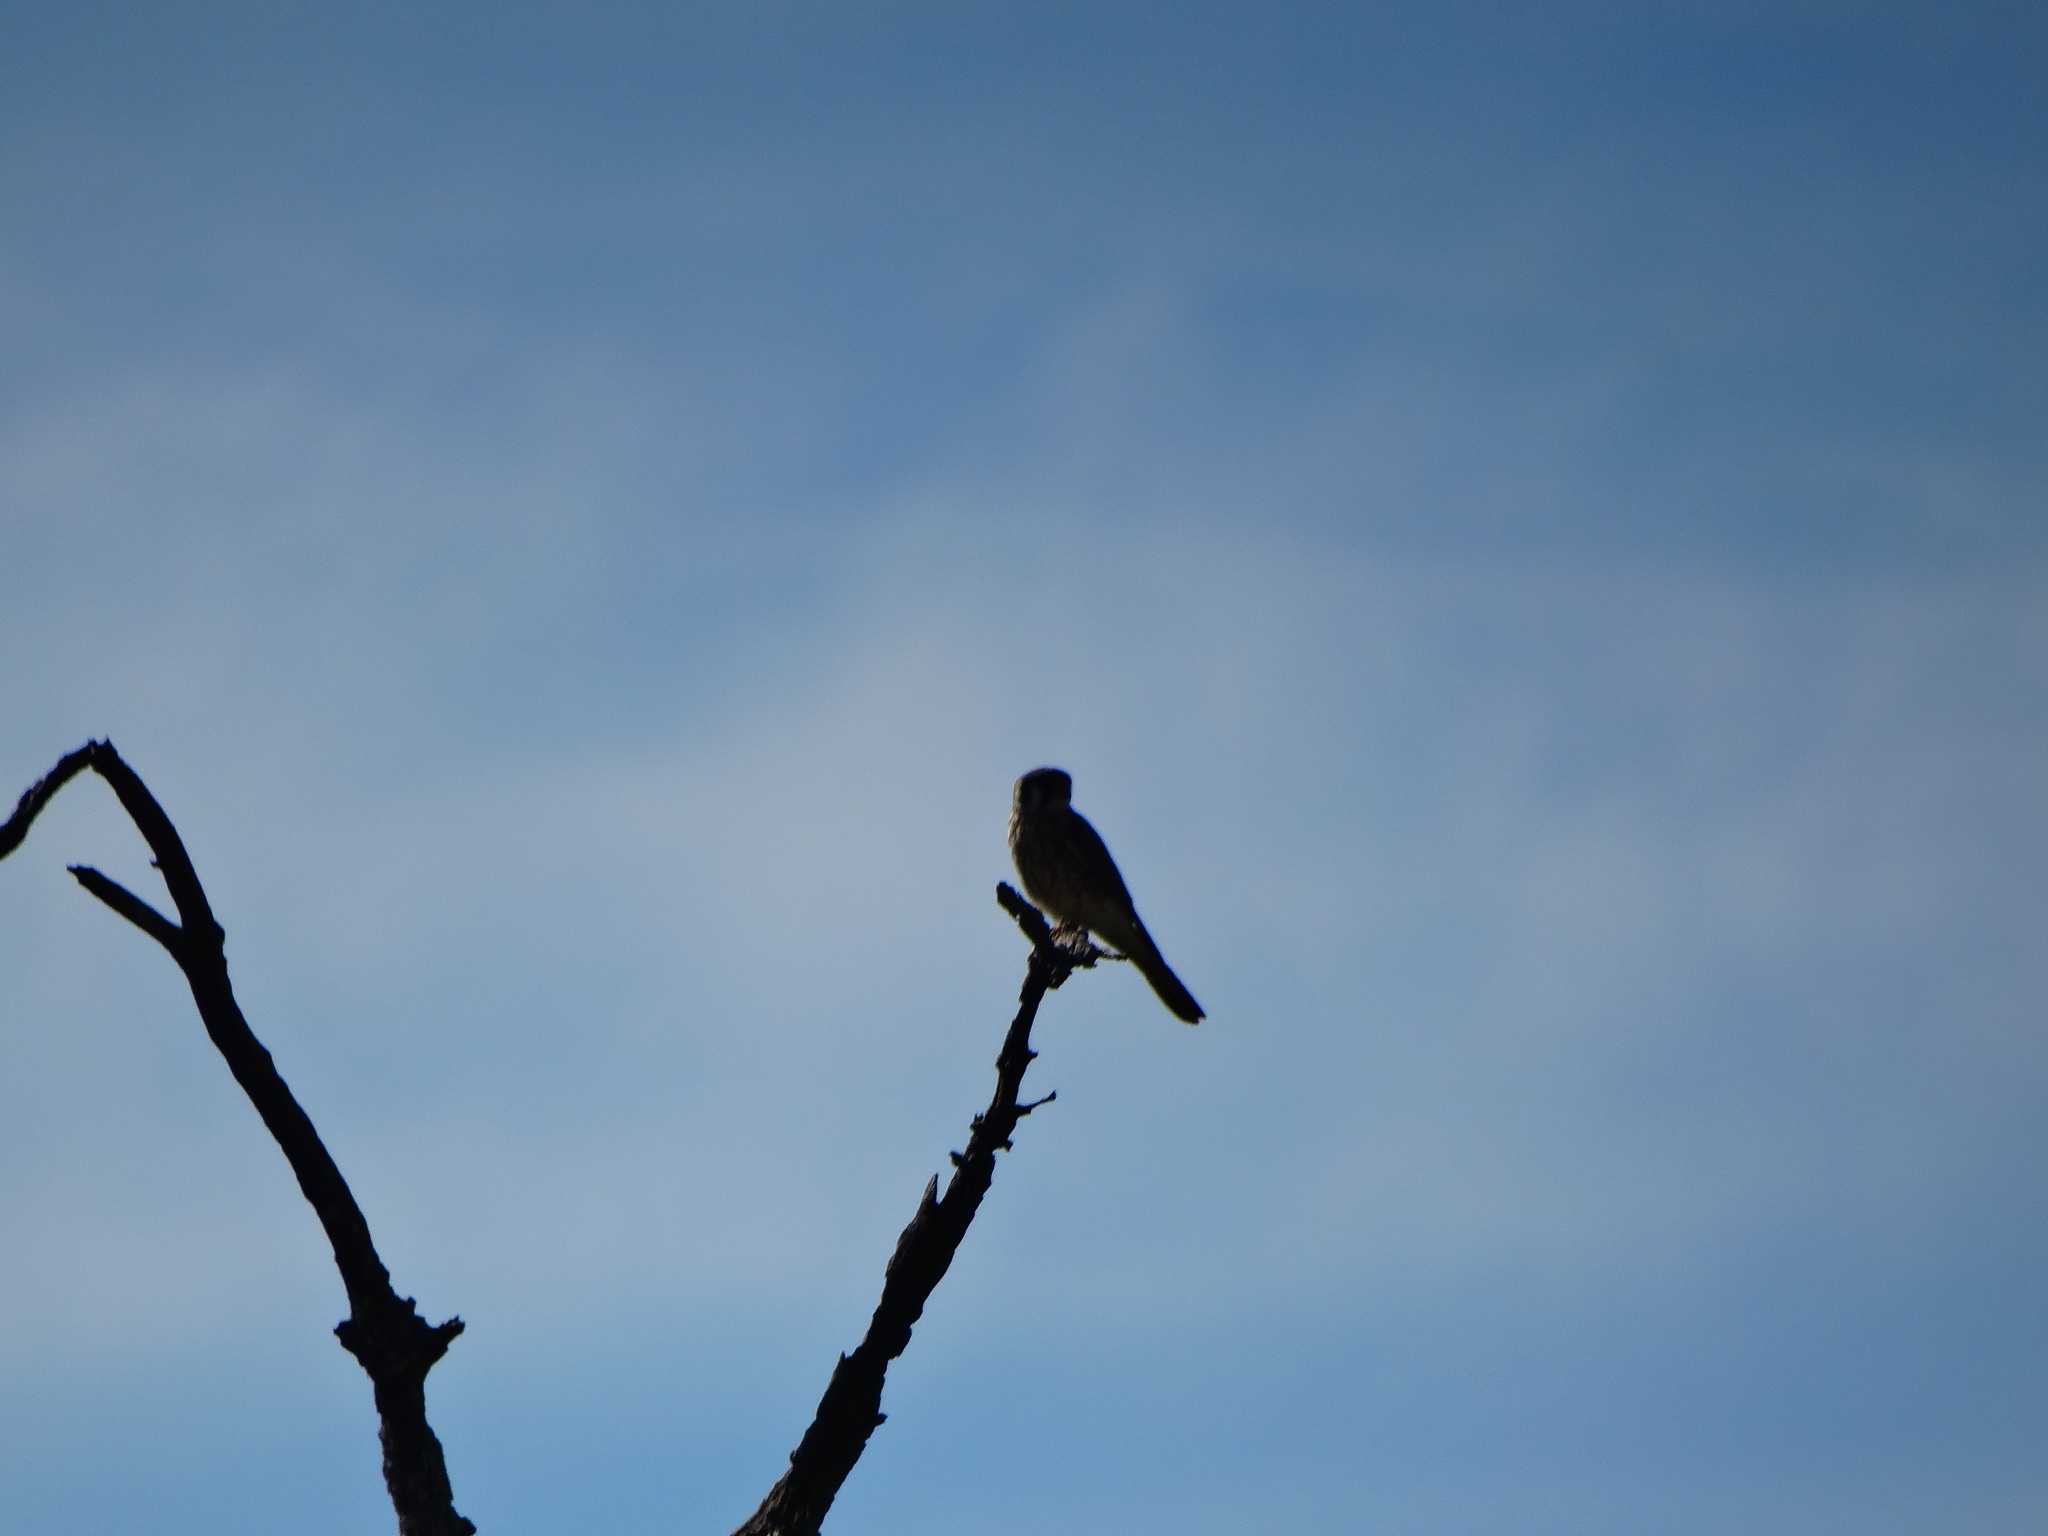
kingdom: Animalia
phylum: Chordata
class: Aves
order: Falconiformes
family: Falconidae
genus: Falco
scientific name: Falco sparverius
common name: American kestrel
